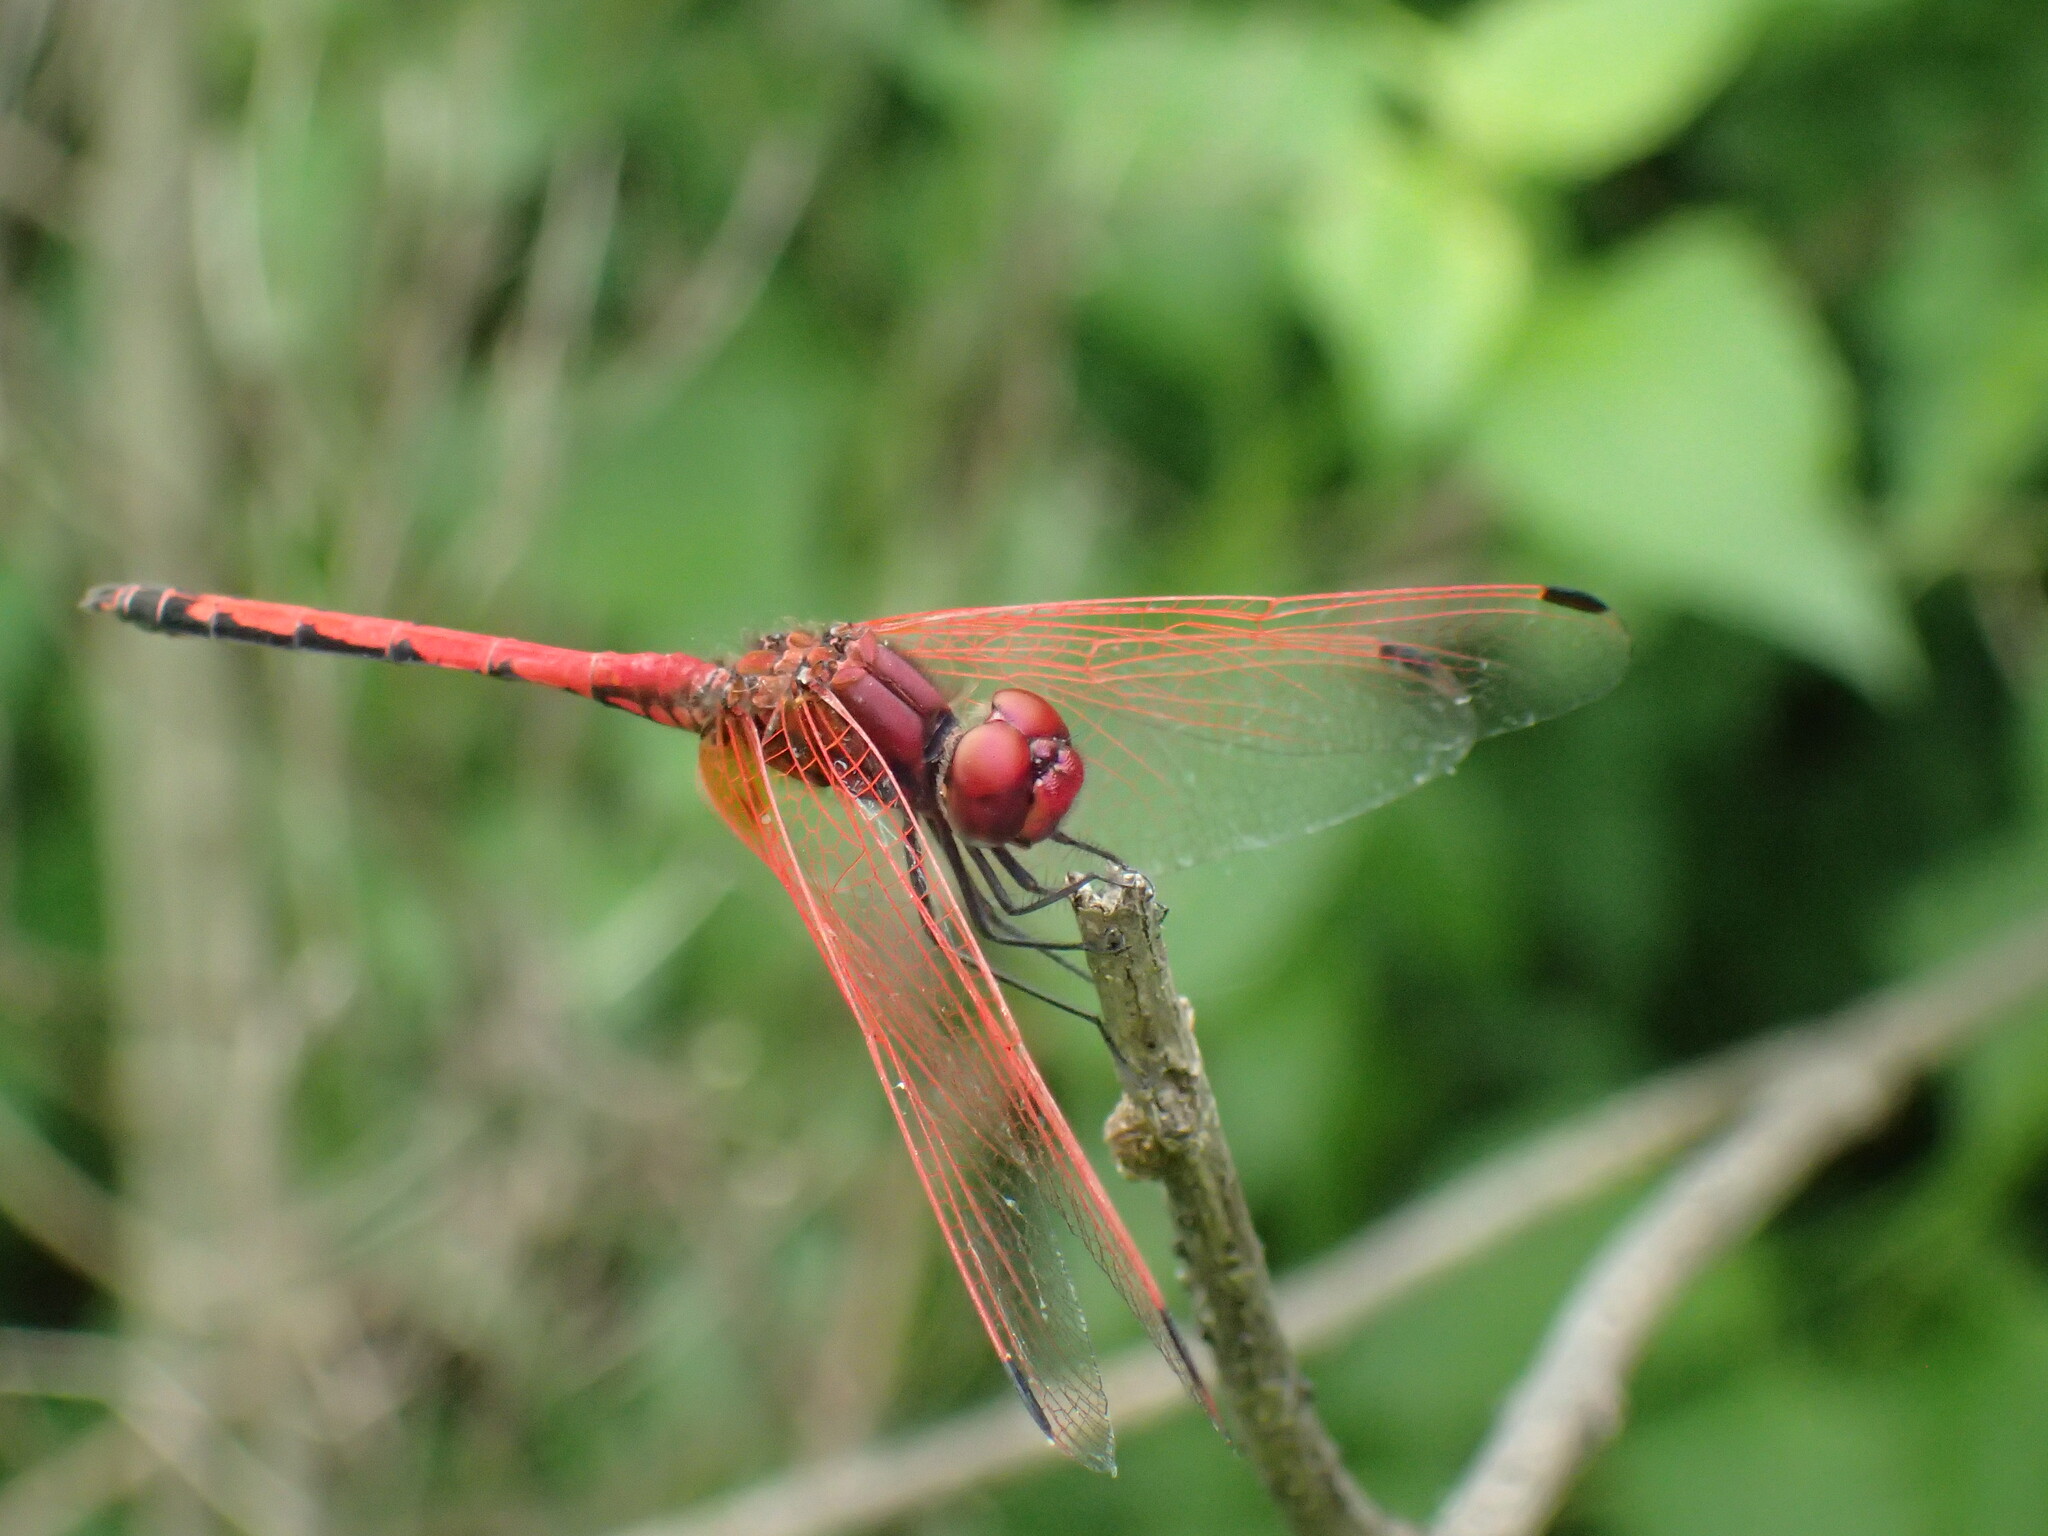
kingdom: Animalia
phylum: Arthropoda
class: Insecta
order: Odonata
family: Libellulidae
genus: Trithemis
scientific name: Trithemis arteriosa
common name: Red-veined dropwing
